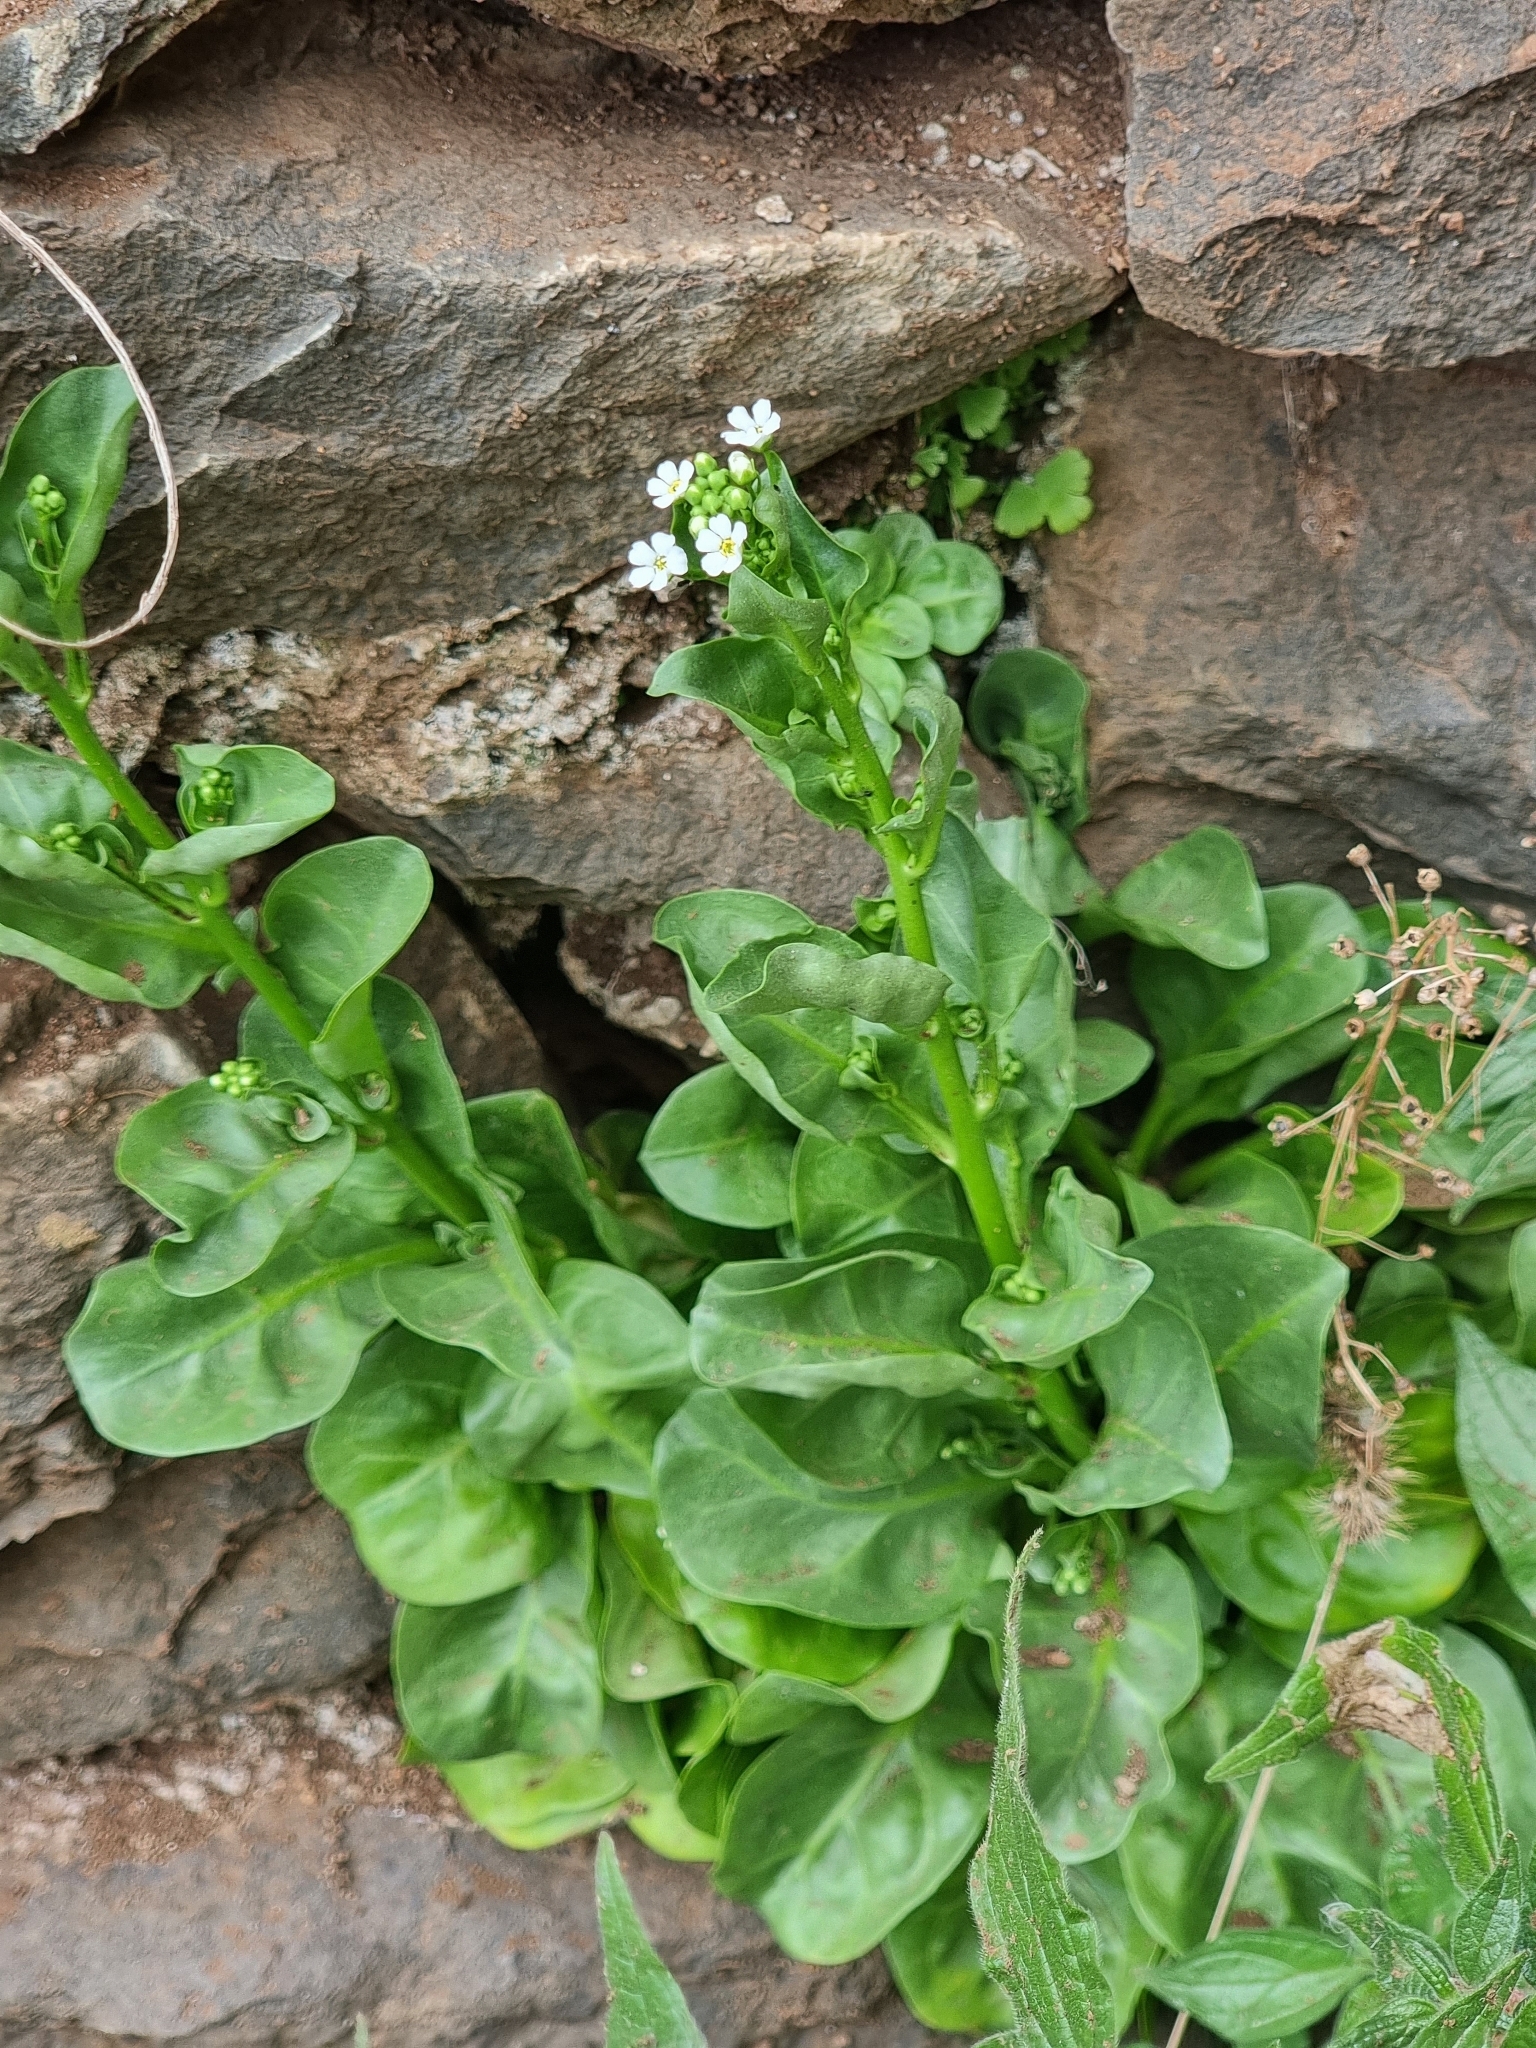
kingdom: Plantae
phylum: Tracheophyta
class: Magnoliopsida
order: Ericales
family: Primulaceae
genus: Samolus
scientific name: Samolus valerandi
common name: Brookweed
